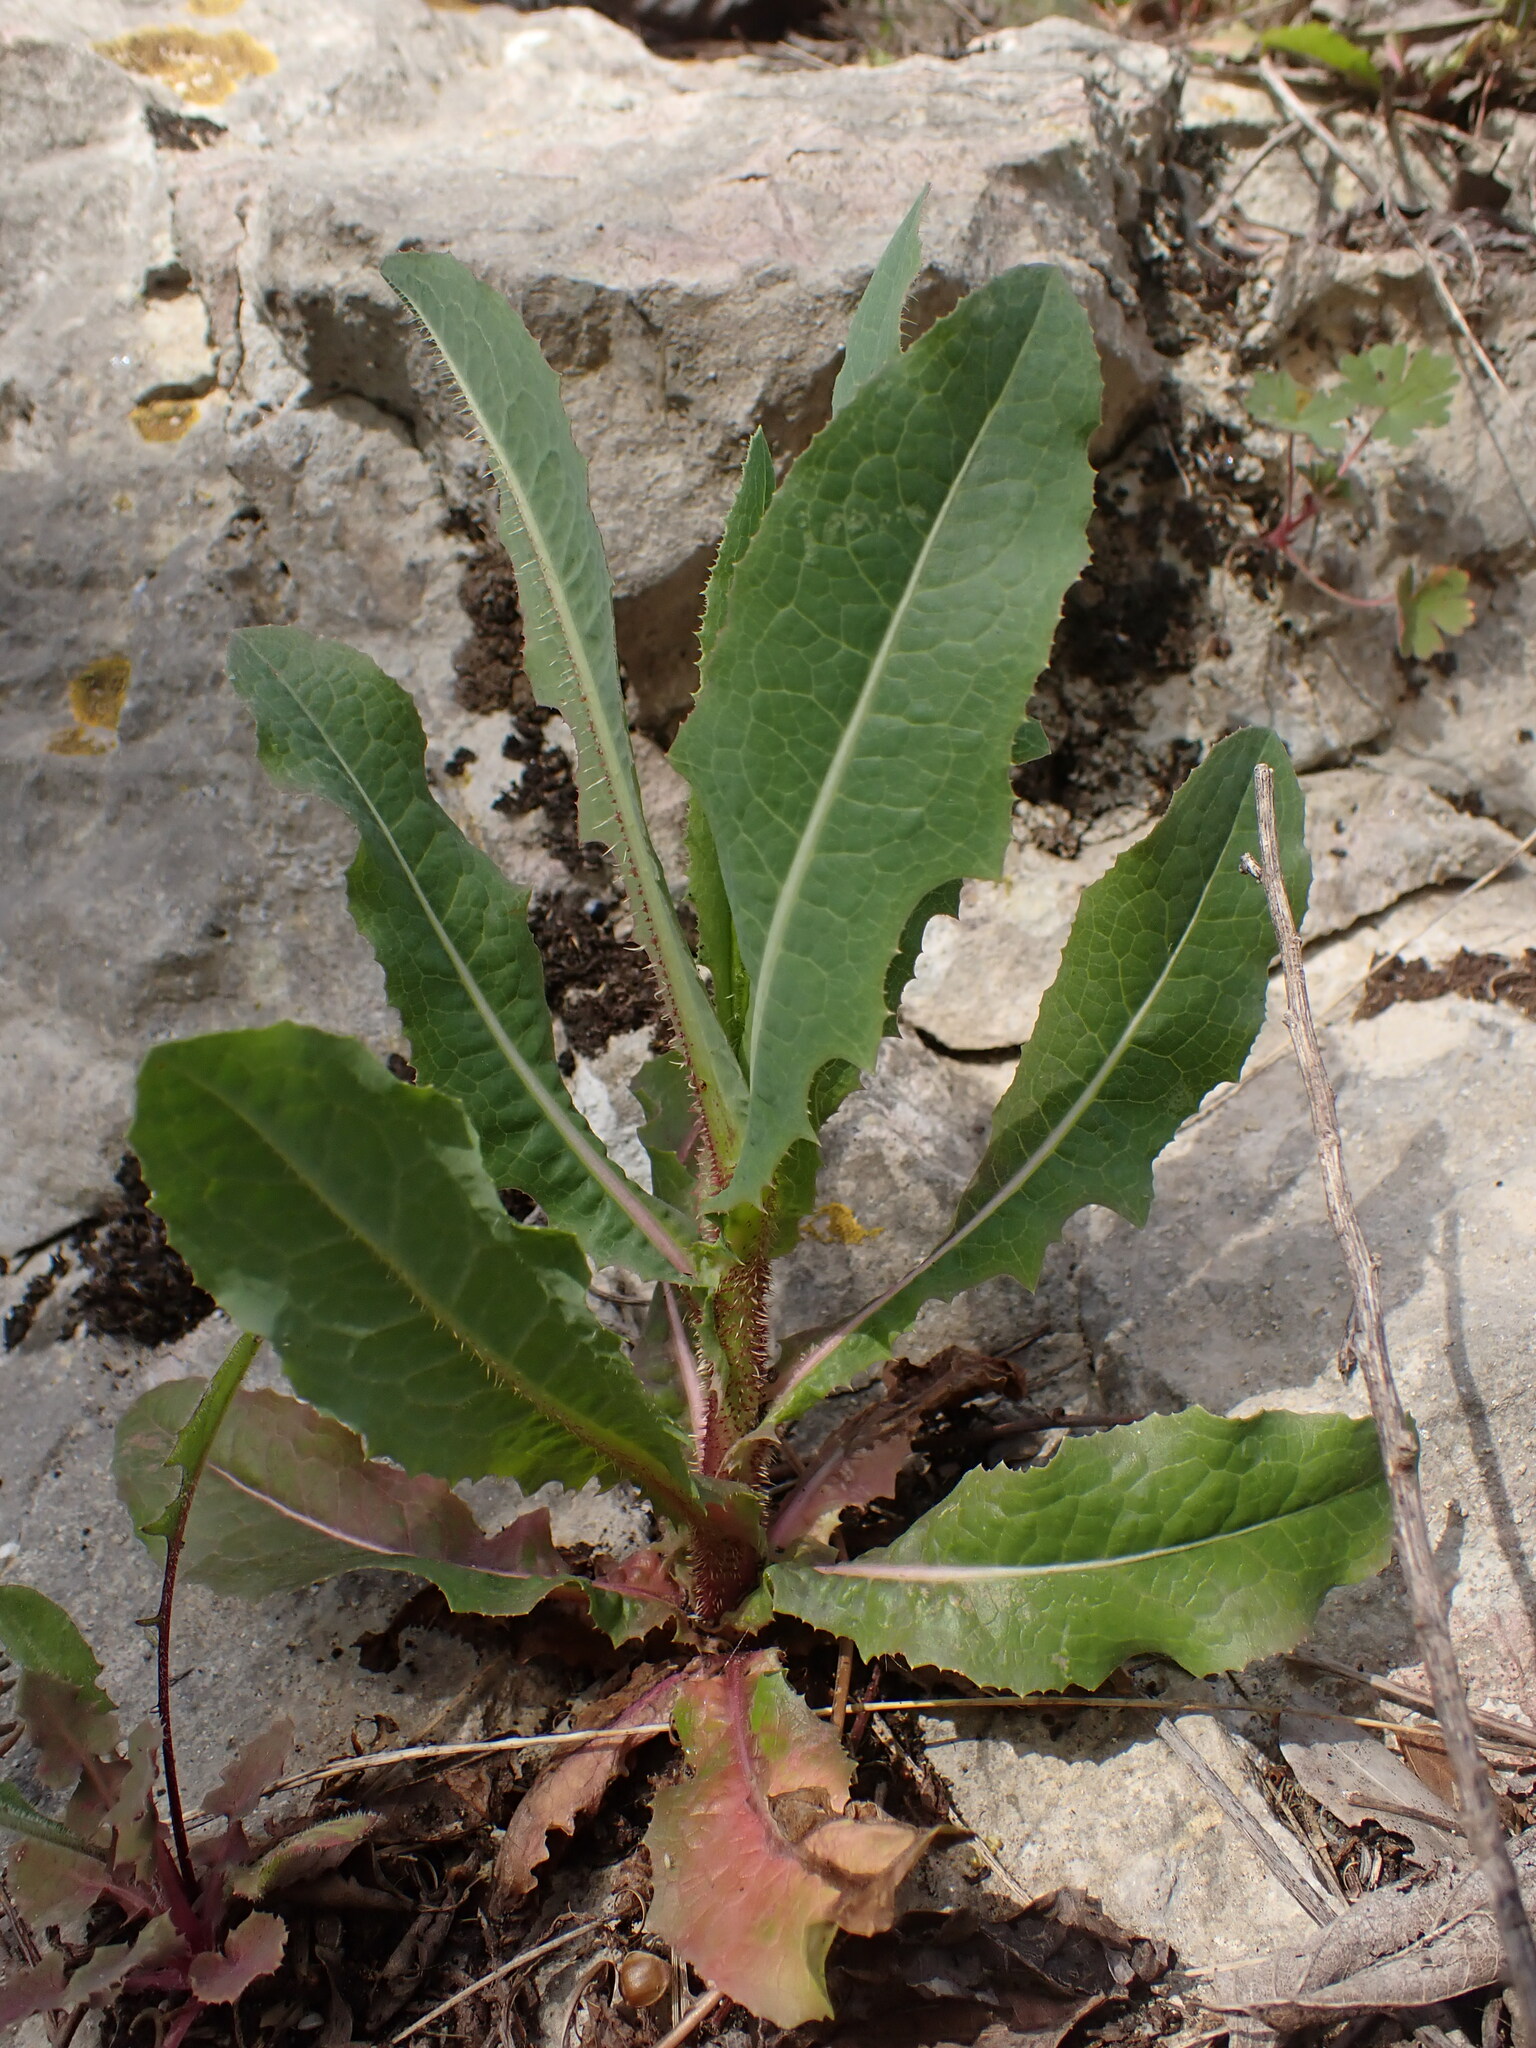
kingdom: Plantae
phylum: Tracheophyta
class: Magnoliopsida
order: Asterales
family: Asteraceae
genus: Lactuca
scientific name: Lactuca serriola
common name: Prickly lettuce
